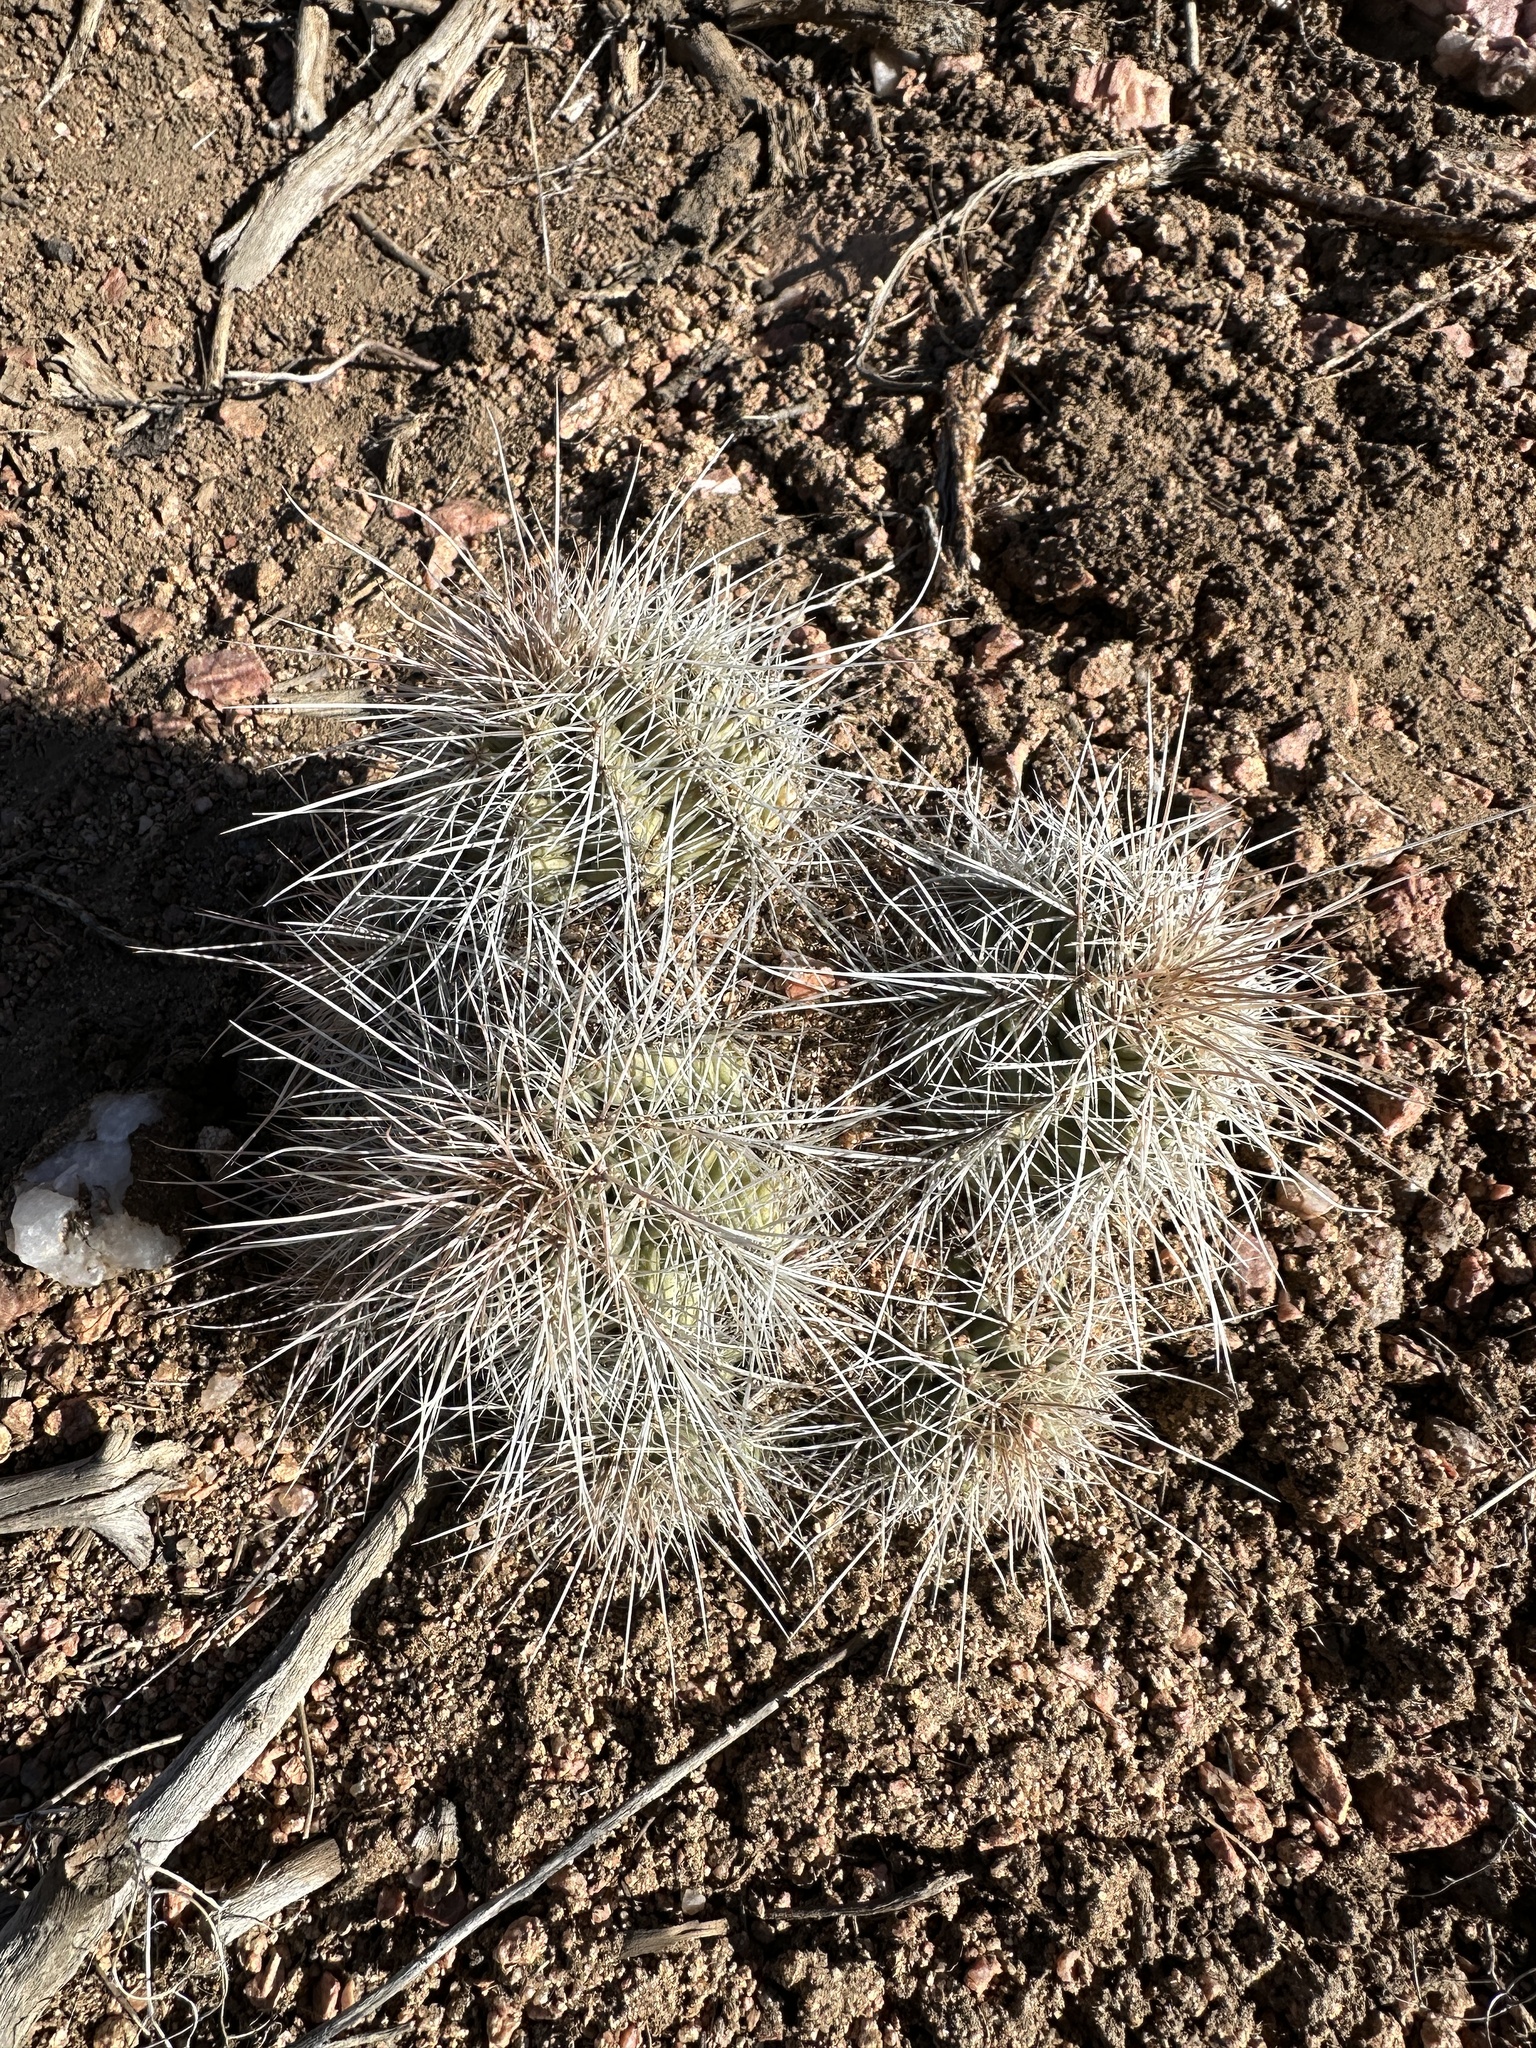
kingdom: Plantae
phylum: Tracheophyta
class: Magnoliopsida
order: Caryophyllales
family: Cactaceae
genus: Echinocereus
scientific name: Echinocereus coccineus
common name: Scarlet hedgehog cactus
